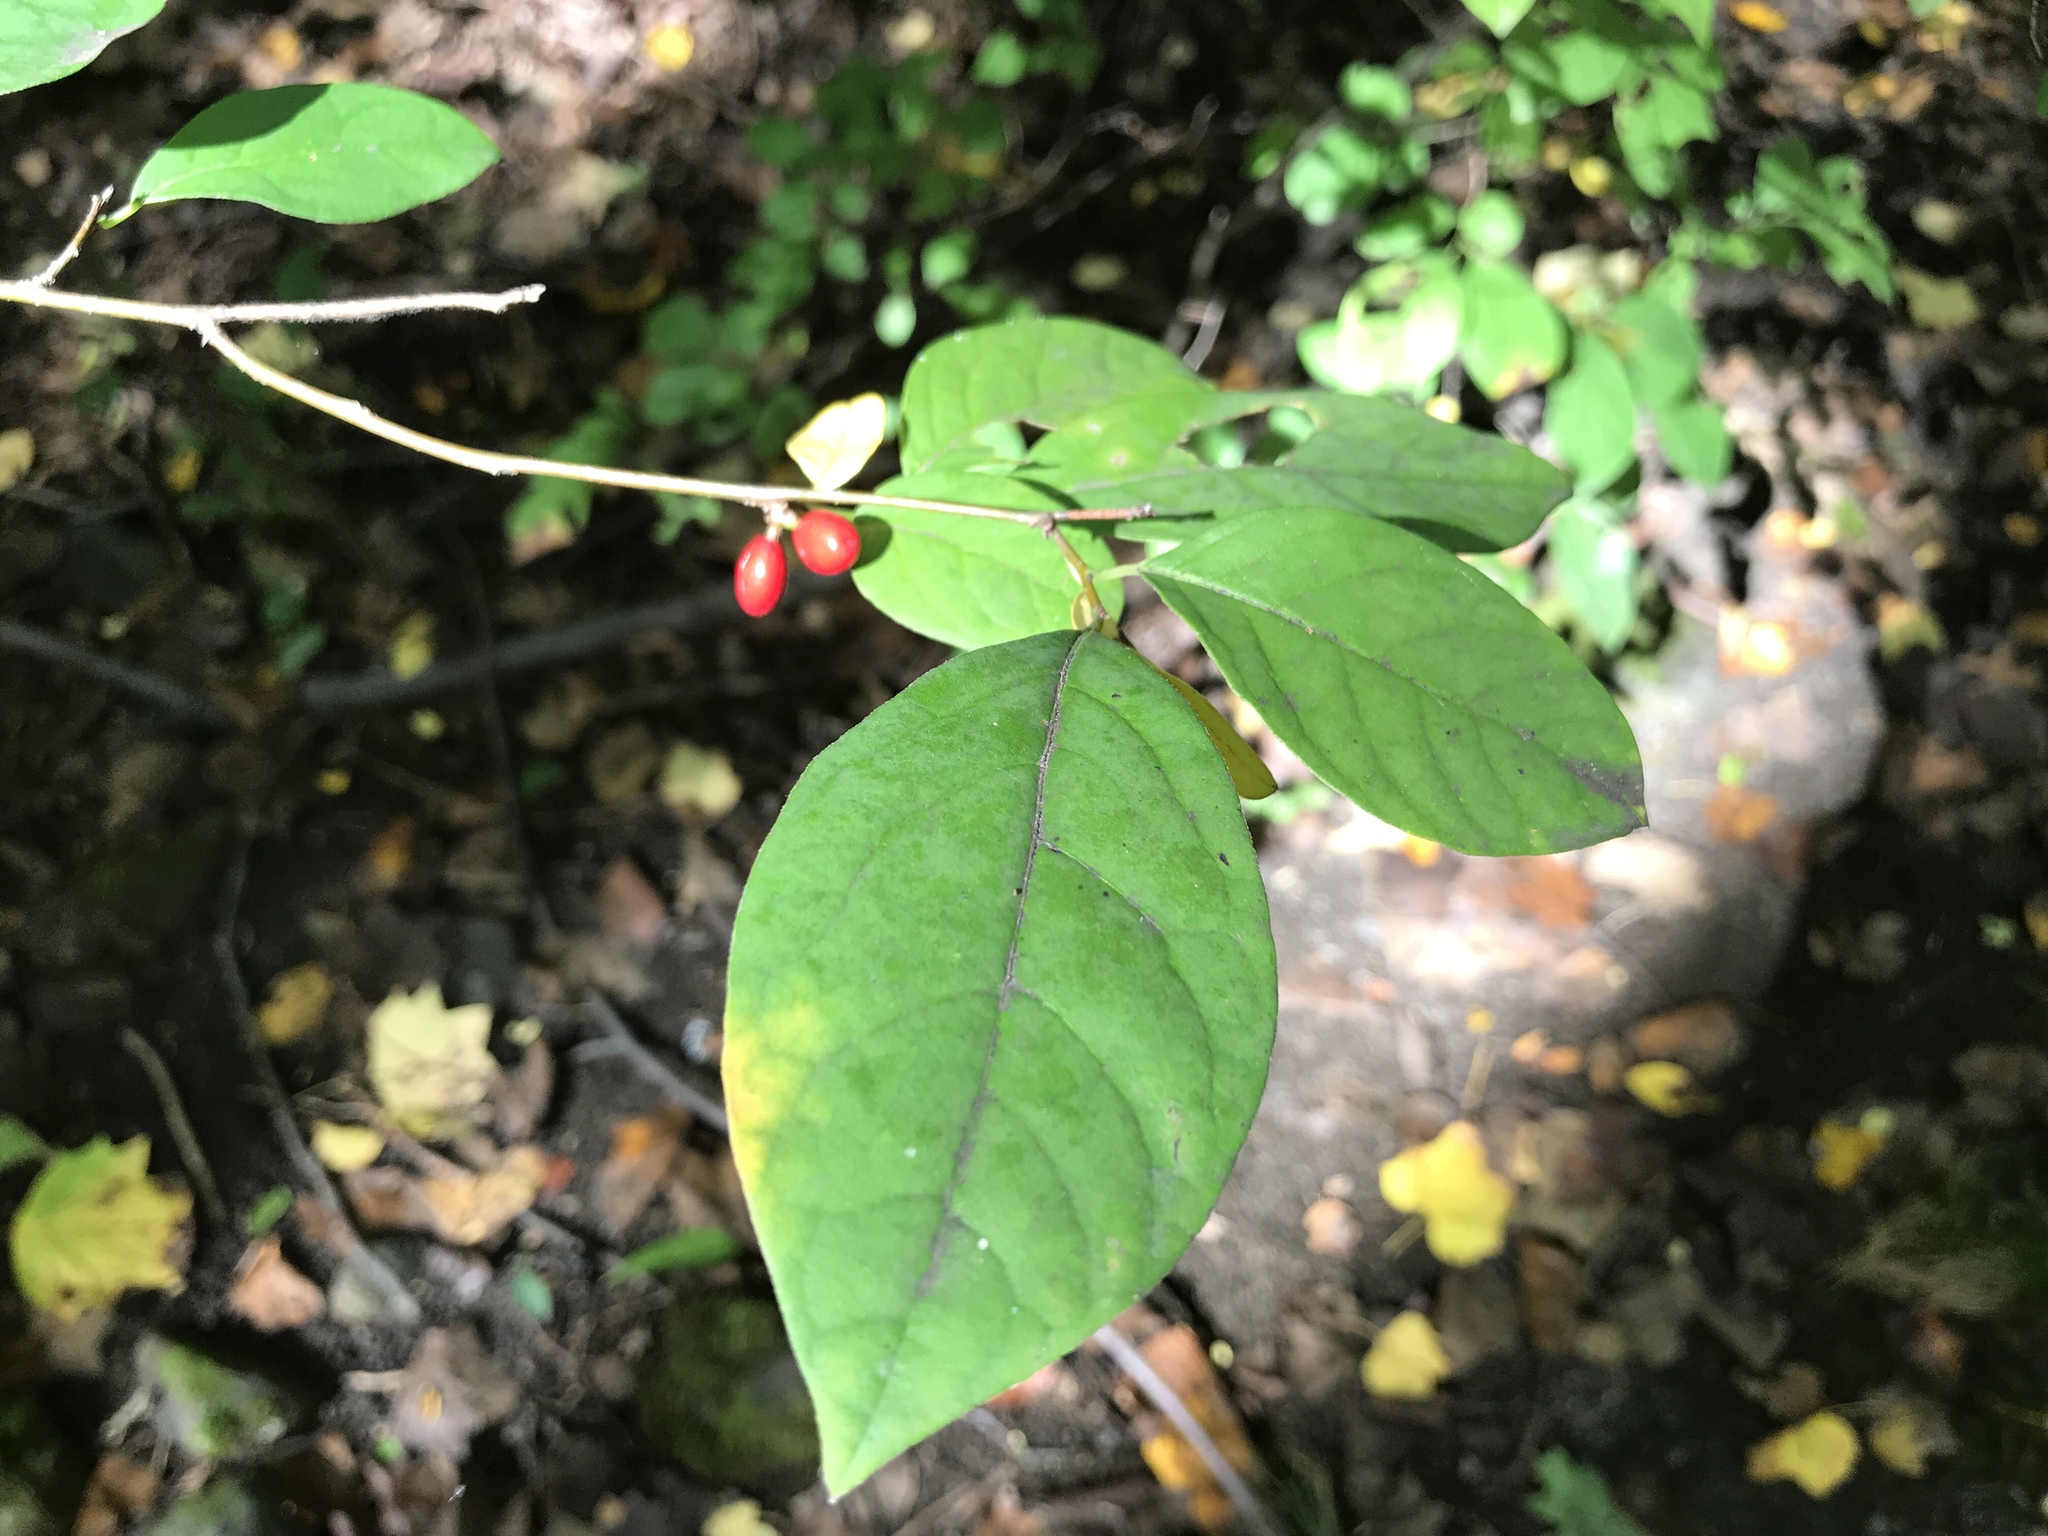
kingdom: Plantae
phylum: Tracheophyta
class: Magnoliopsida
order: Laurales
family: Lauraceae
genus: Lindera
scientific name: Lindera benzoin
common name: Spicebush
